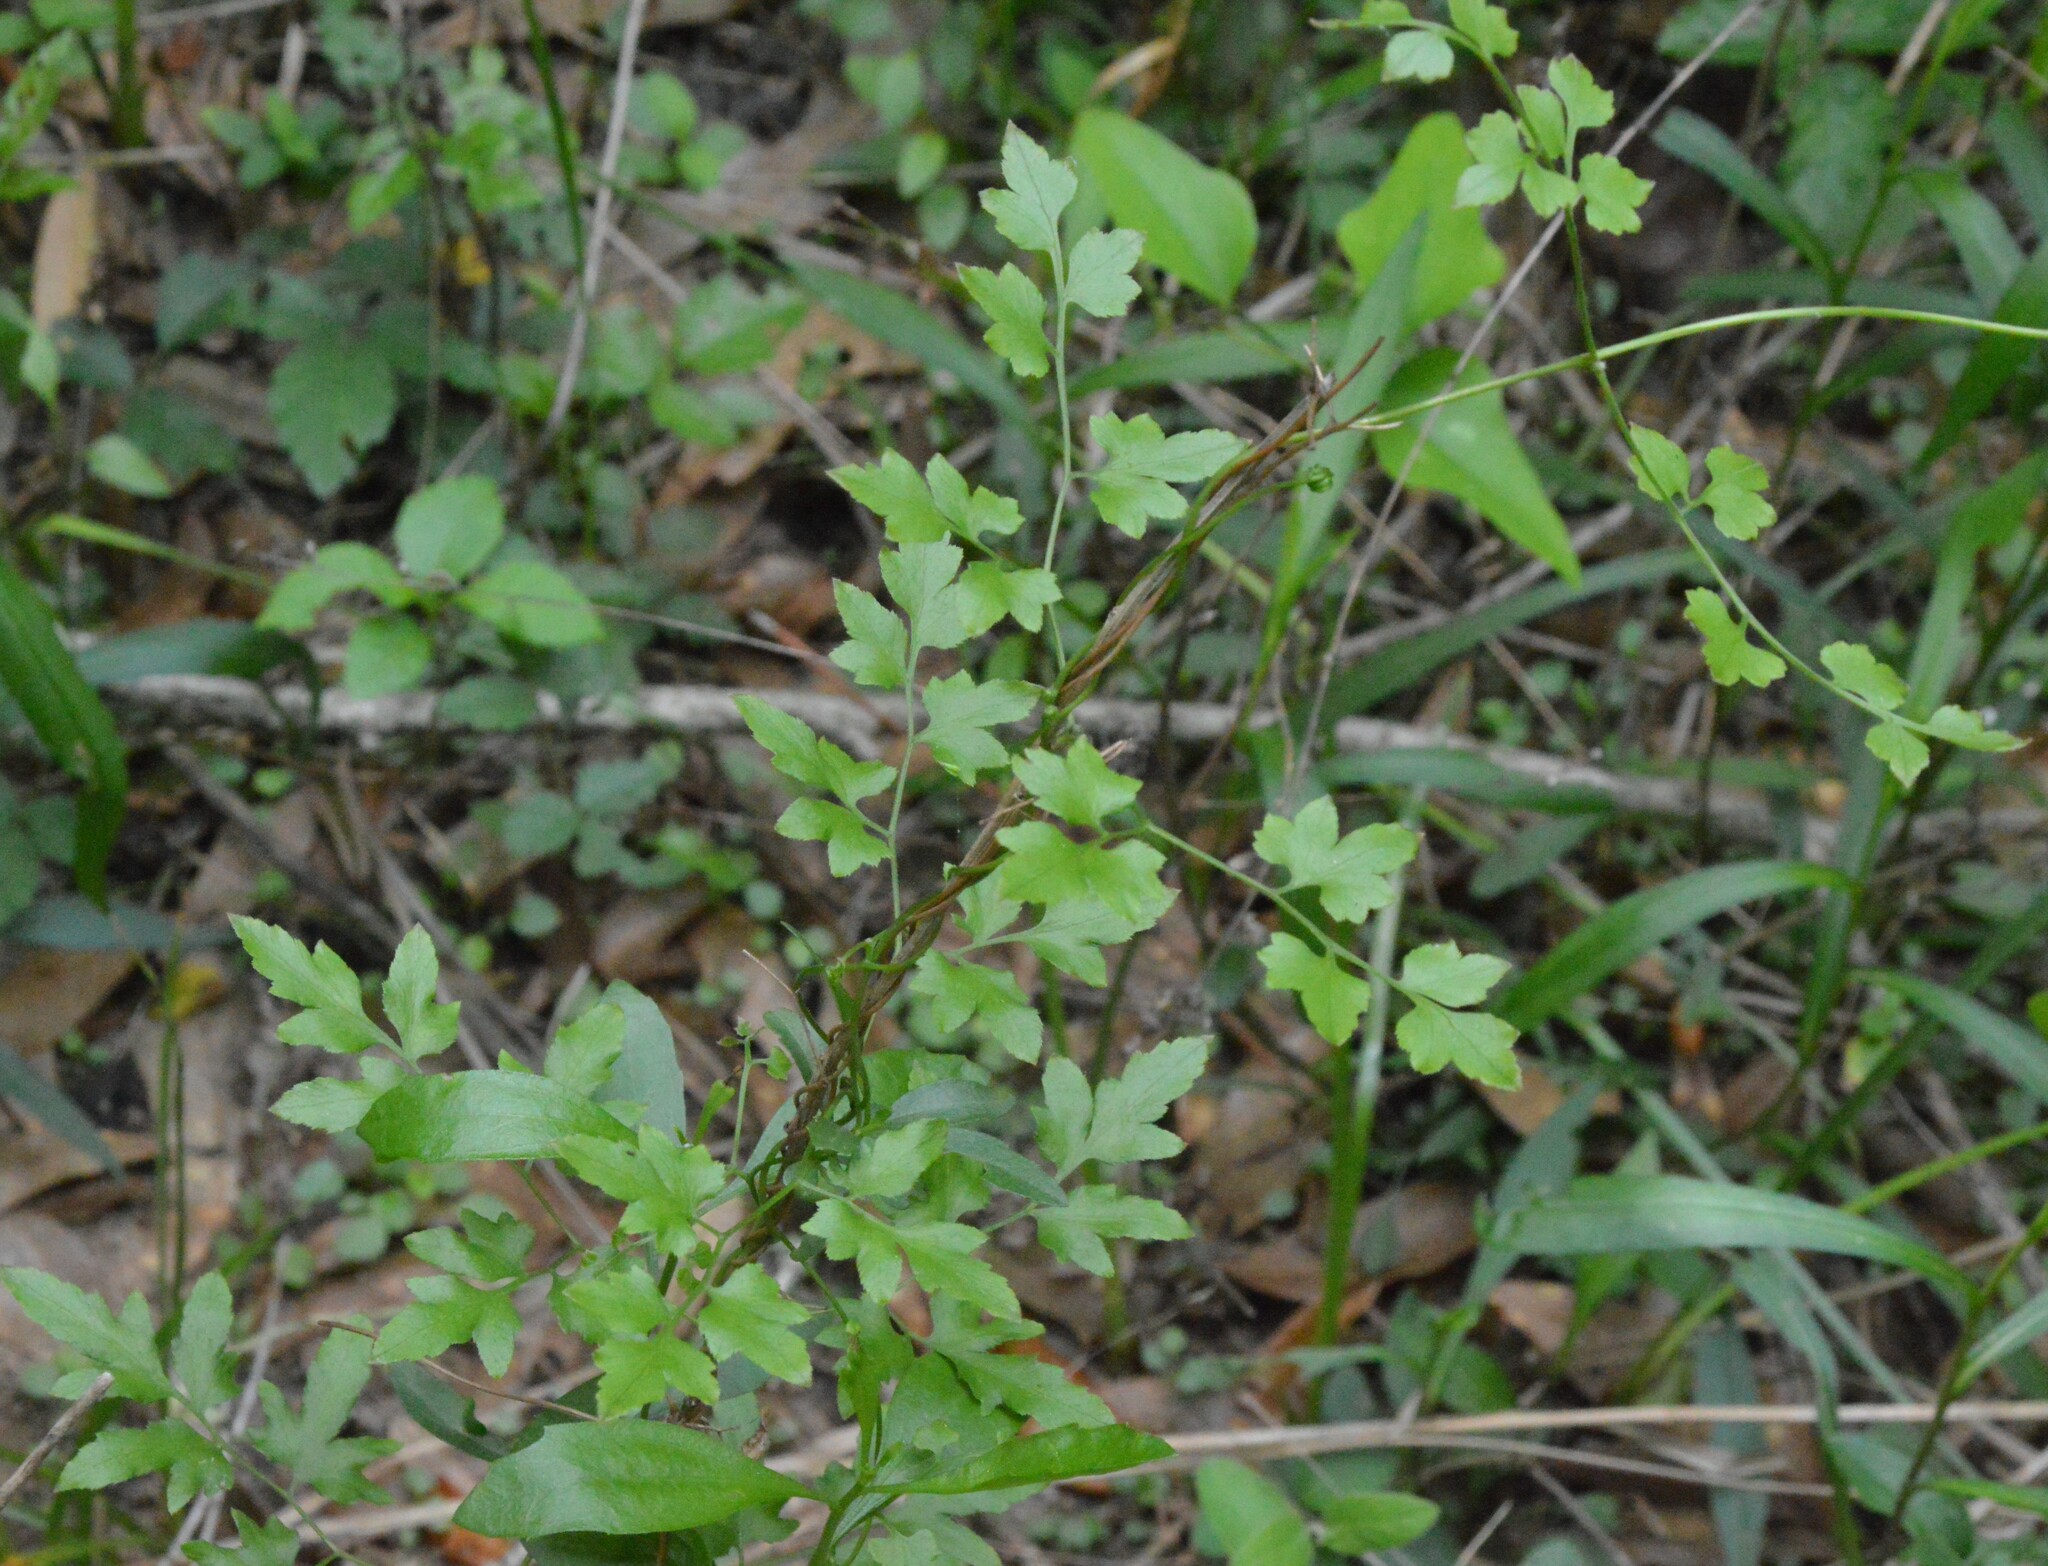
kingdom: Plantae
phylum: Tracheophyta
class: Polypodiopsida
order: Schizaeales
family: Lygodiaceae
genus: Lygodium
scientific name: Lygodium japonicum
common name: Japanese climbing fern
